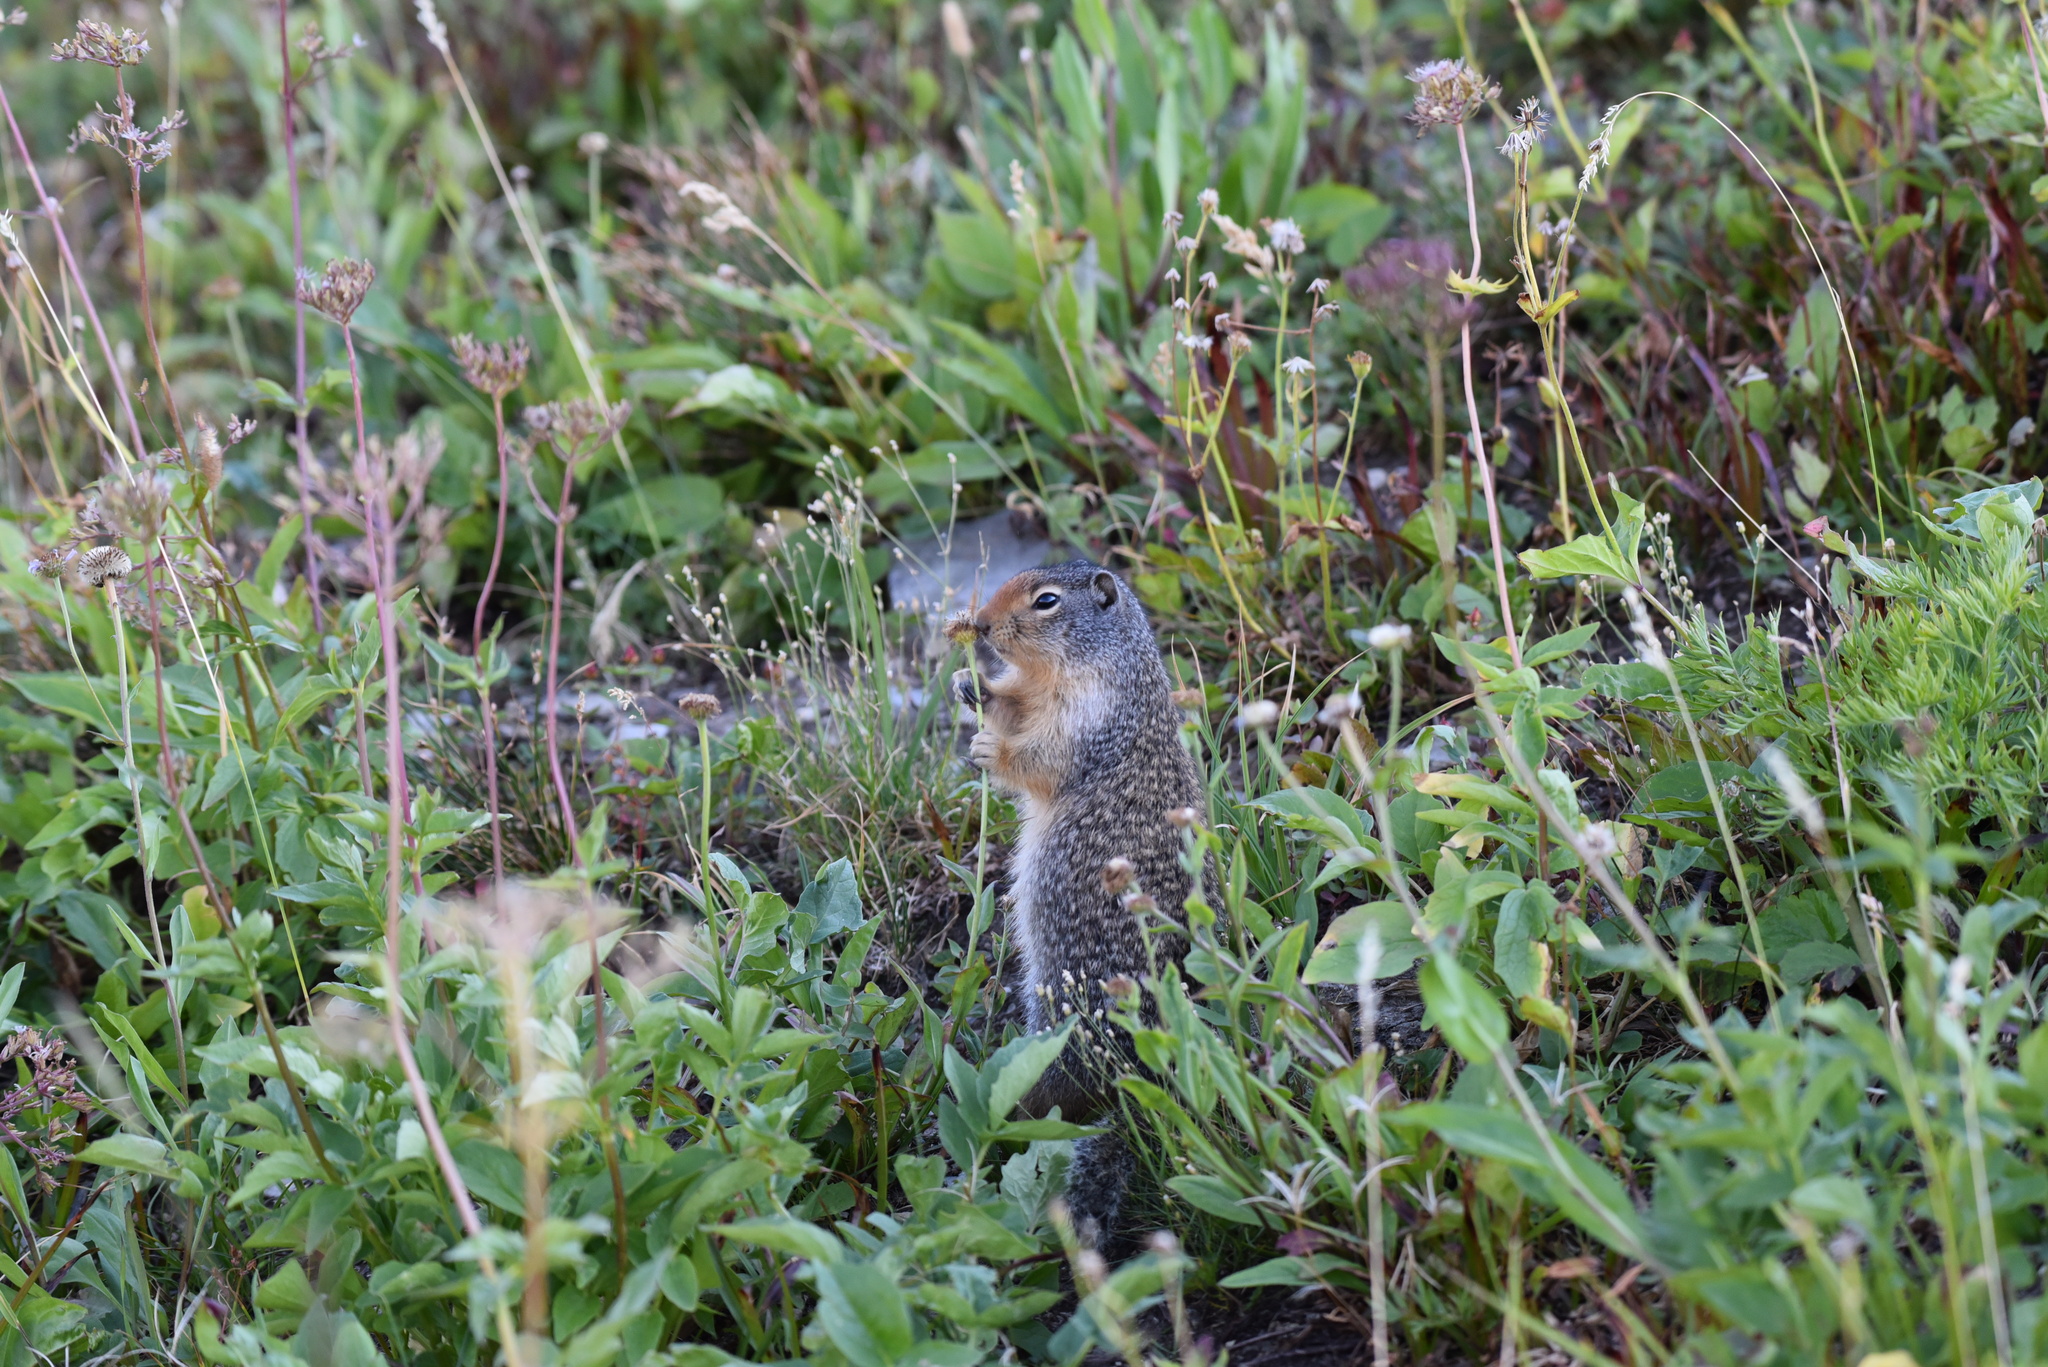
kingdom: Animalia
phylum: Chordata
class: Mammalia
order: Rodentia
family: Sciuridae
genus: Urocitellus
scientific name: Urocitellus columbianus
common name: Columbian ground squirrel
